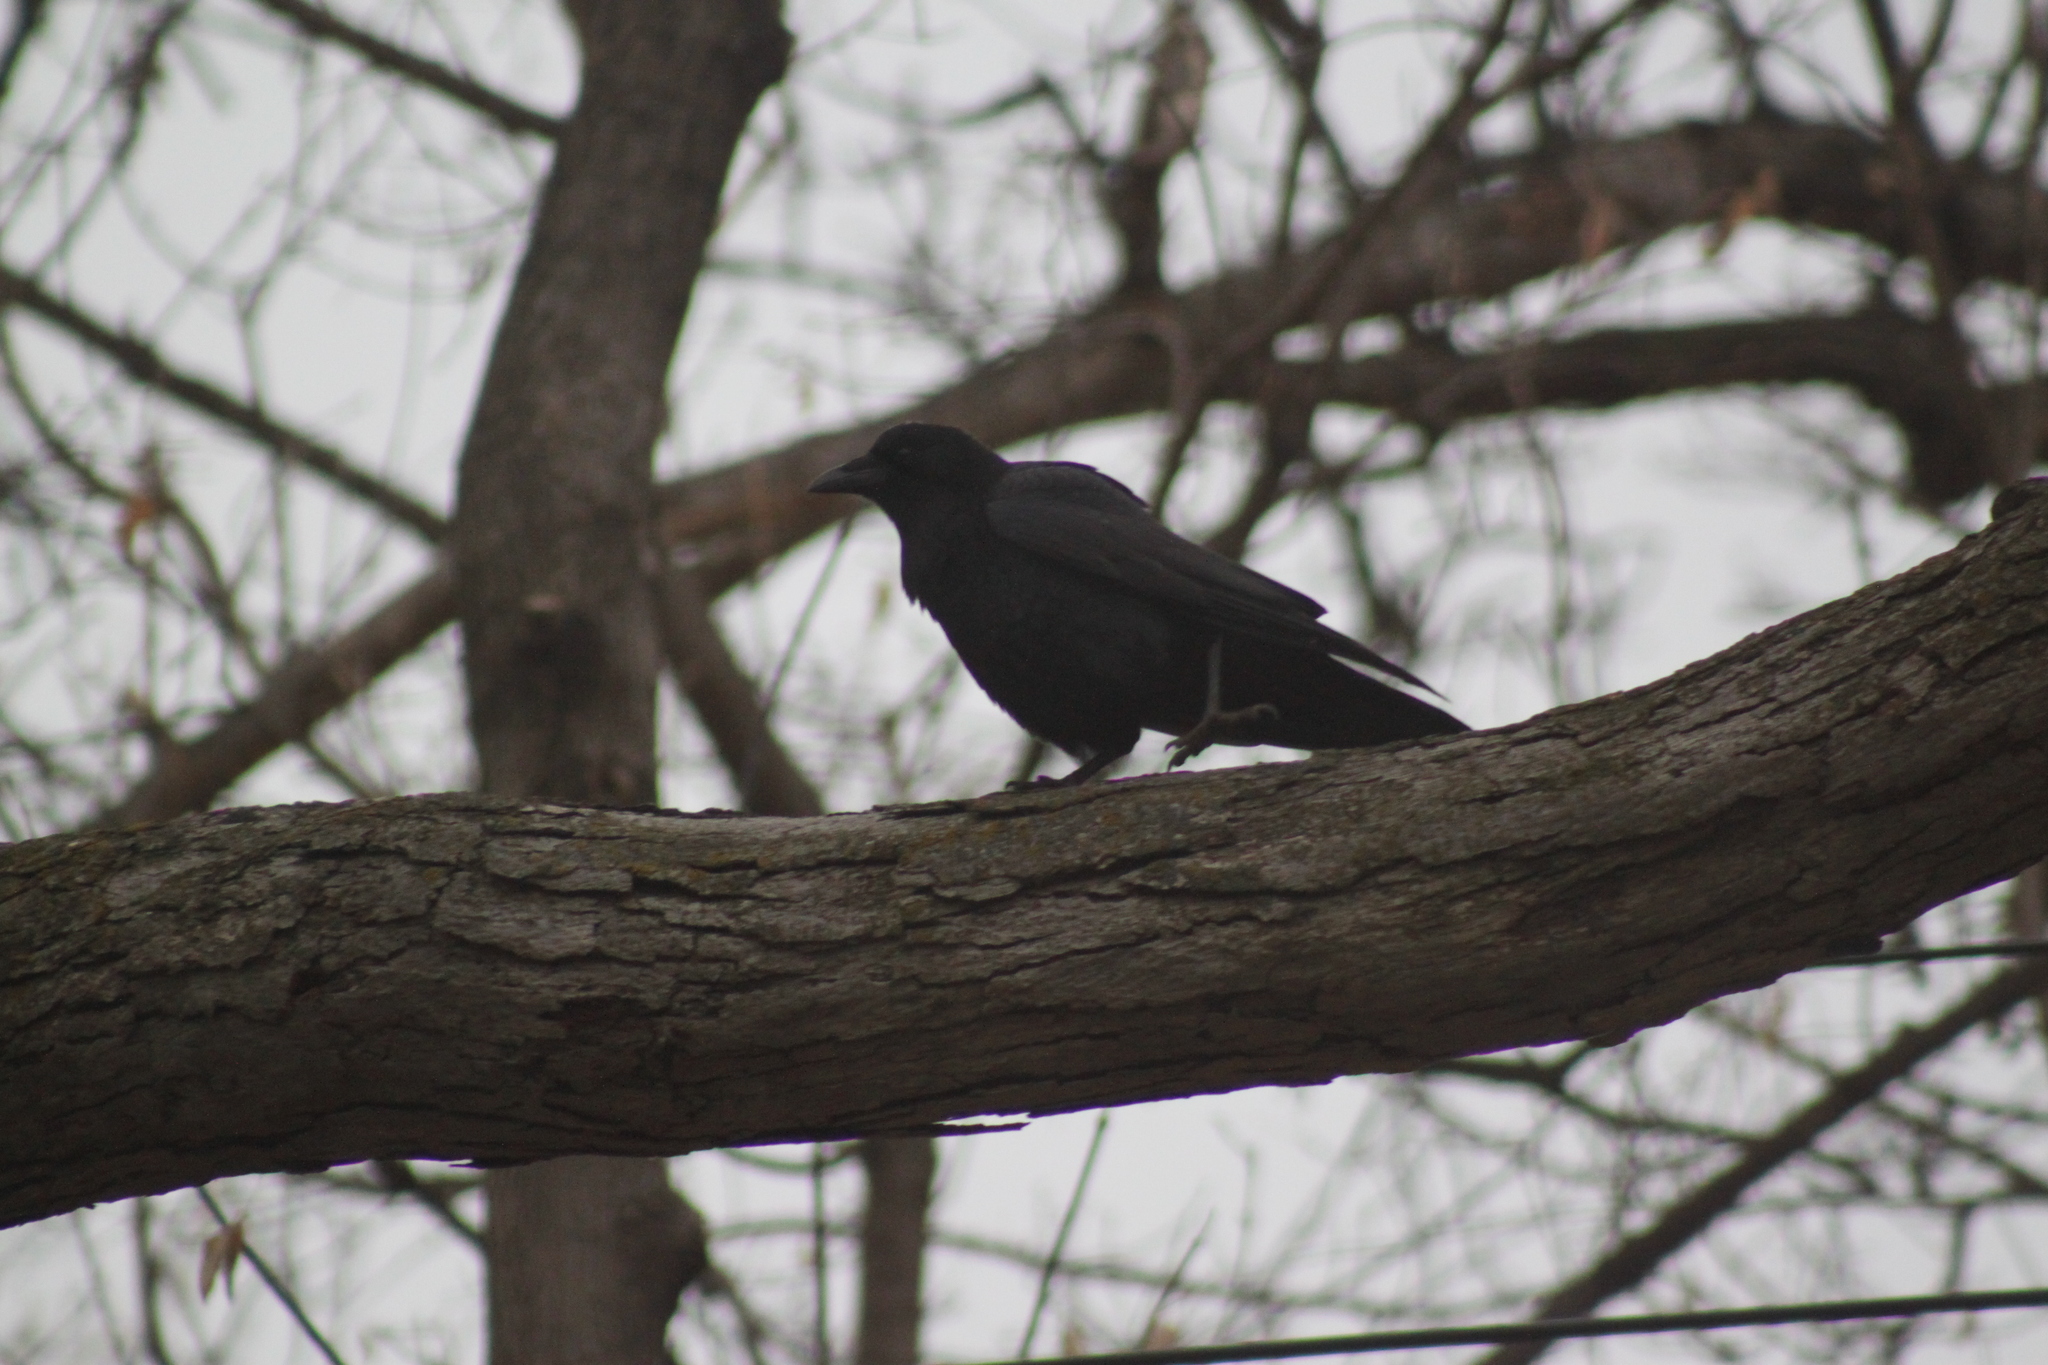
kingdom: Animalia
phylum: Chordata
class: Aves
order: Passeriformes
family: Corvidae
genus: Corvus
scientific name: Corvus brachyrhynchos
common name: American crow
